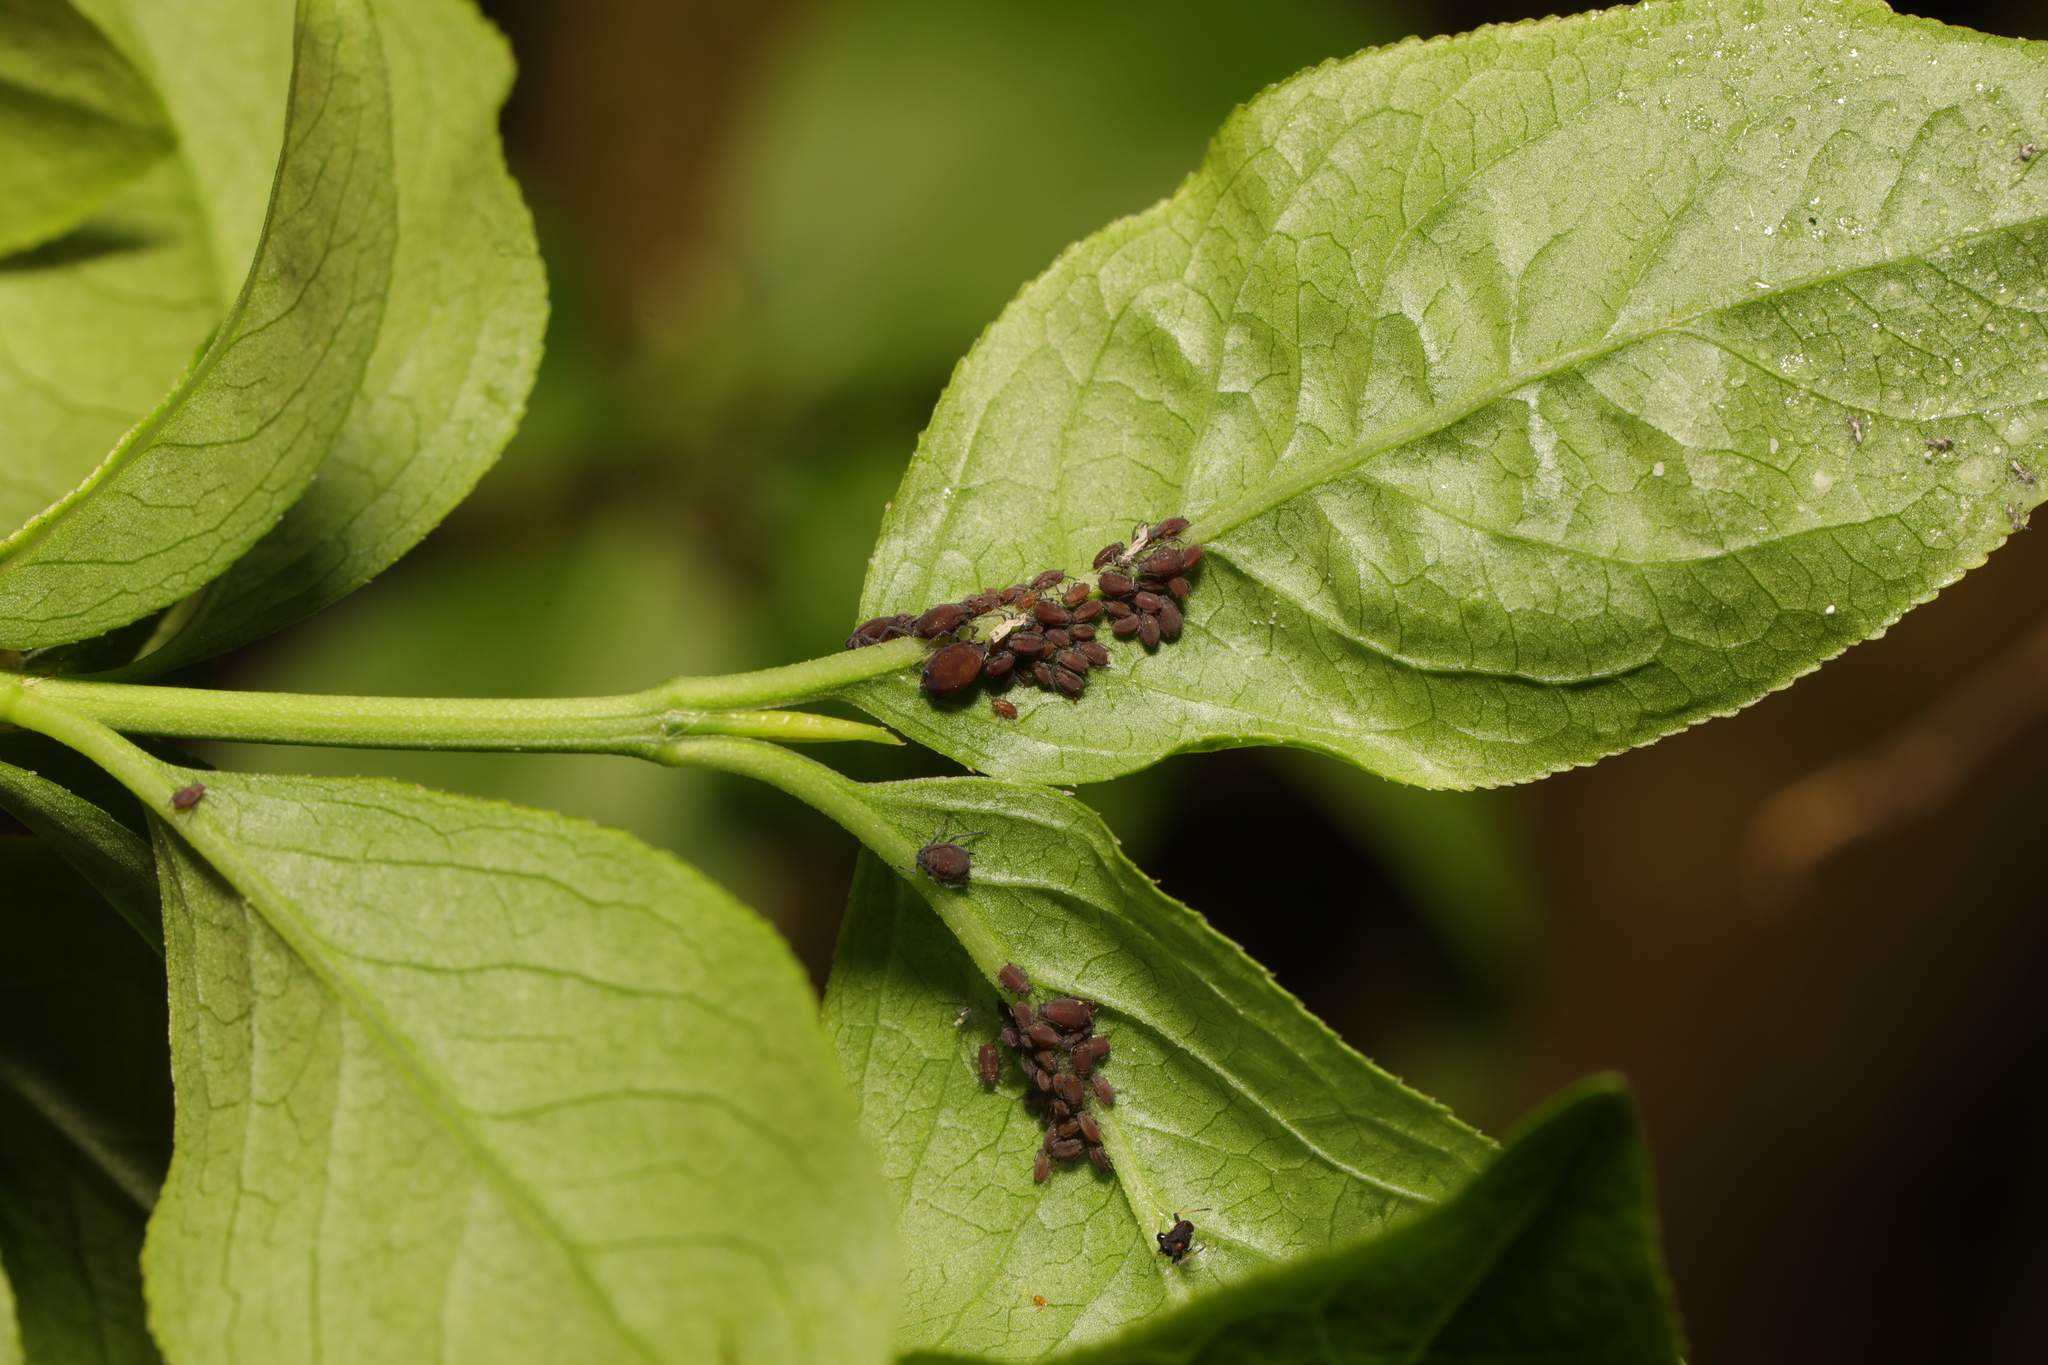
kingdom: Animalia
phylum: Arthropoda
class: Insecta
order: Hemiptera
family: Aphididae
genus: Aphis
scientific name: Aphis fabae
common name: Bean aphid
